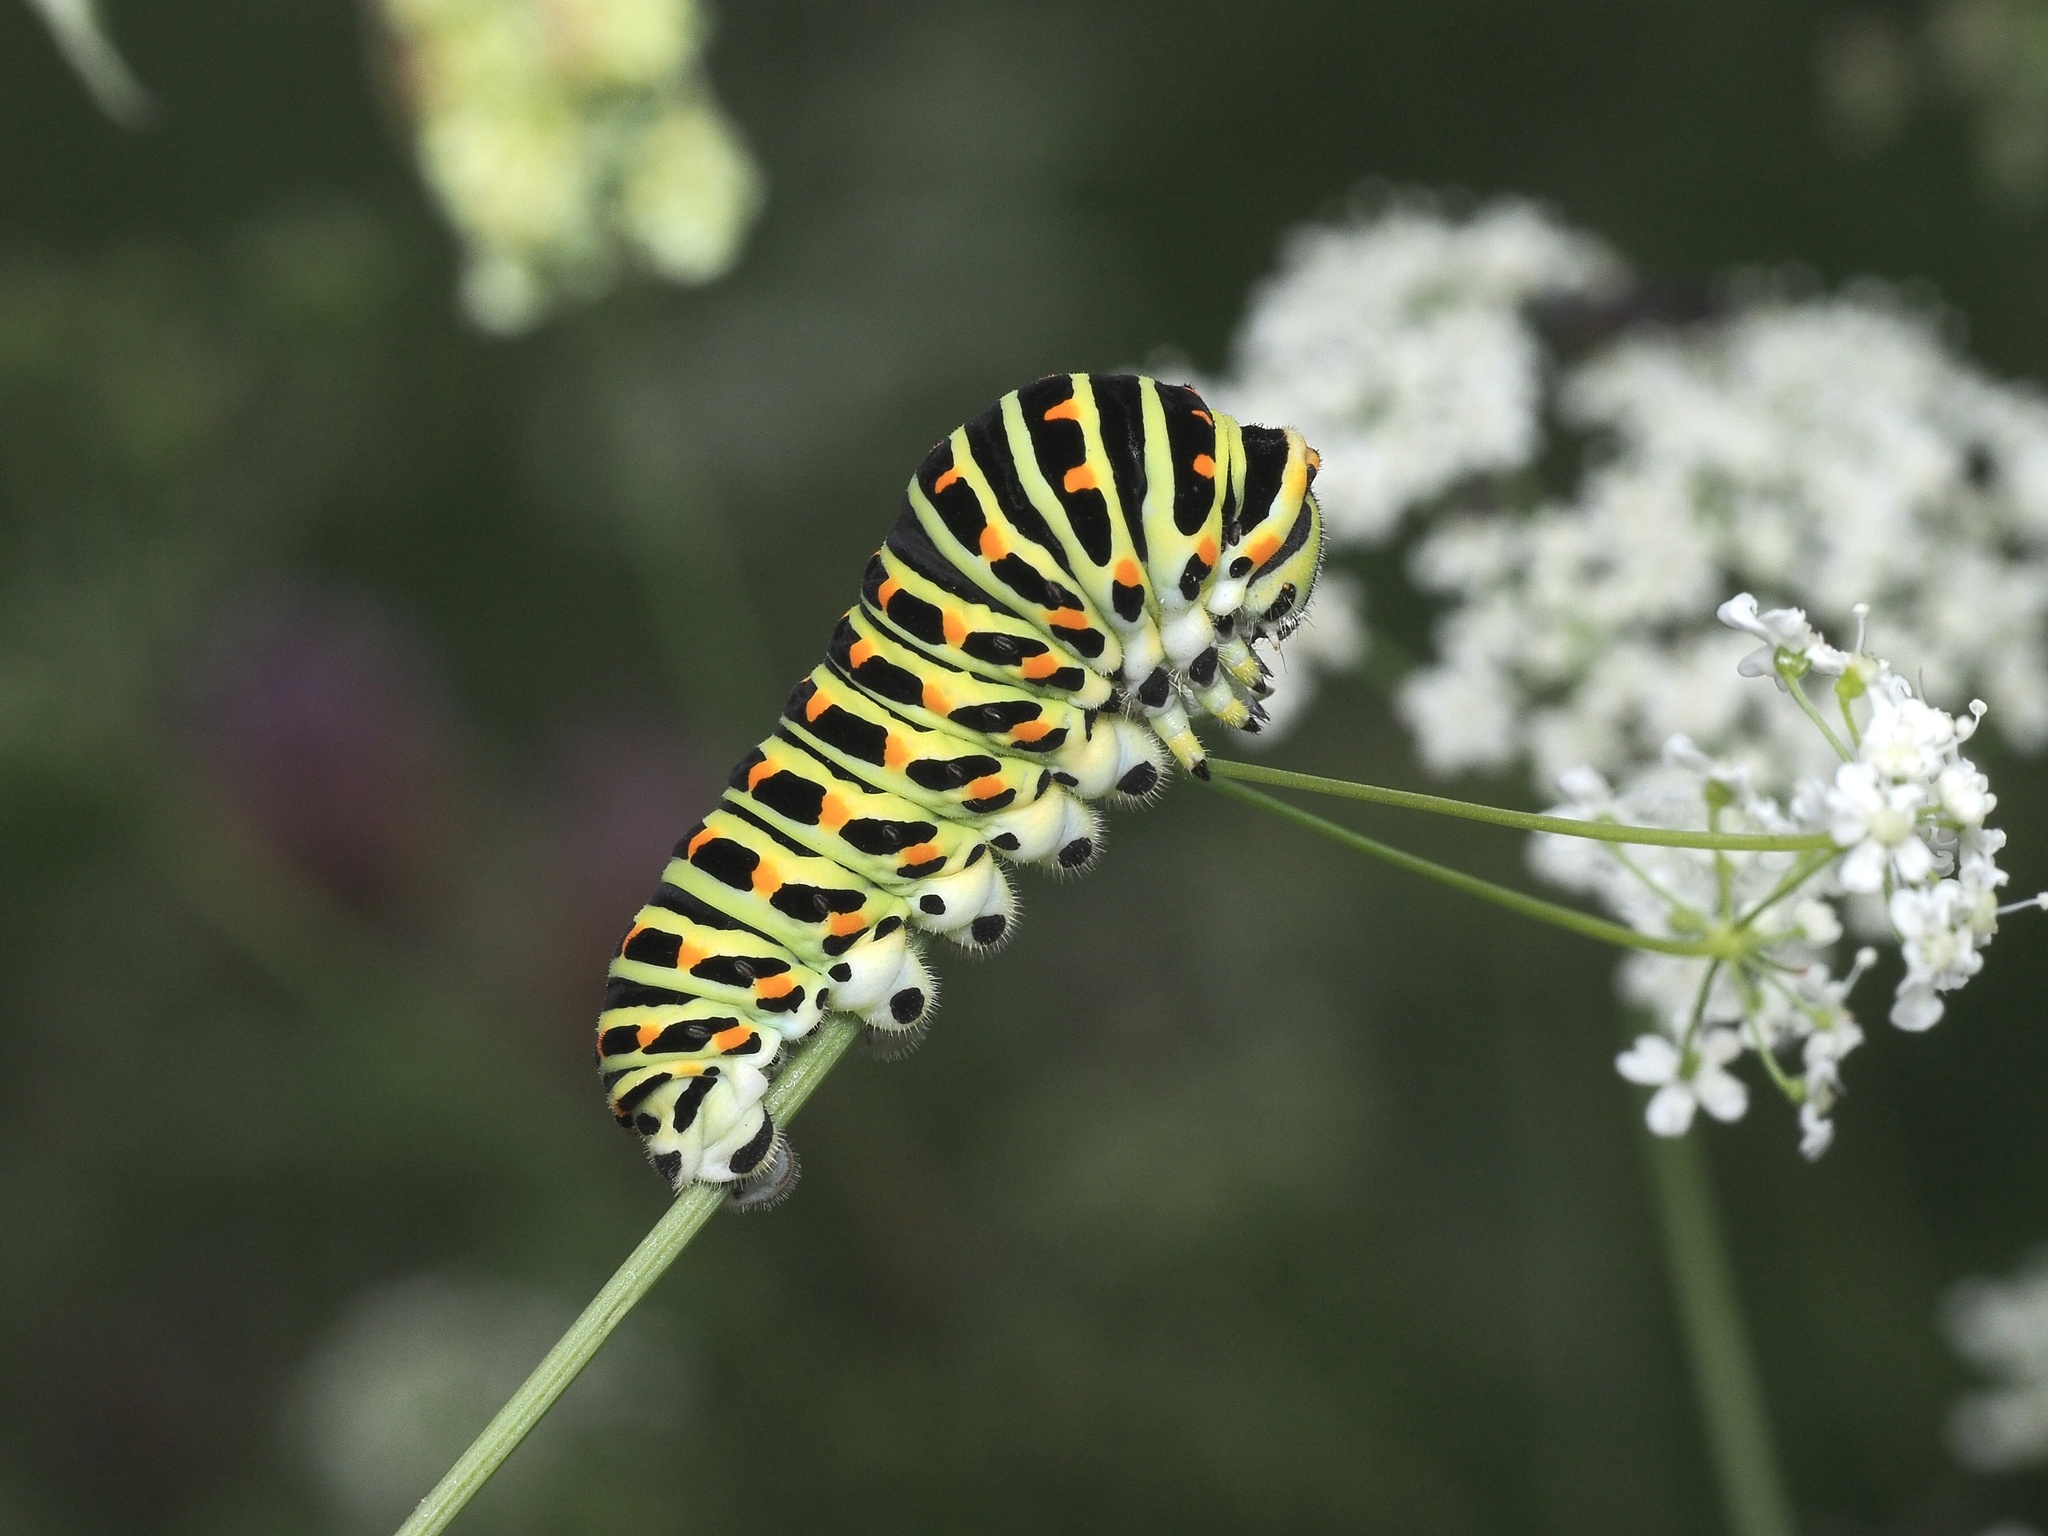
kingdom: Animalia
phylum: Arthropoda
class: Insecta
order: Lepidoptera
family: Papilionidae
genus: Papilio
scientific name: Papilio machaon
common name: Swallowtail
